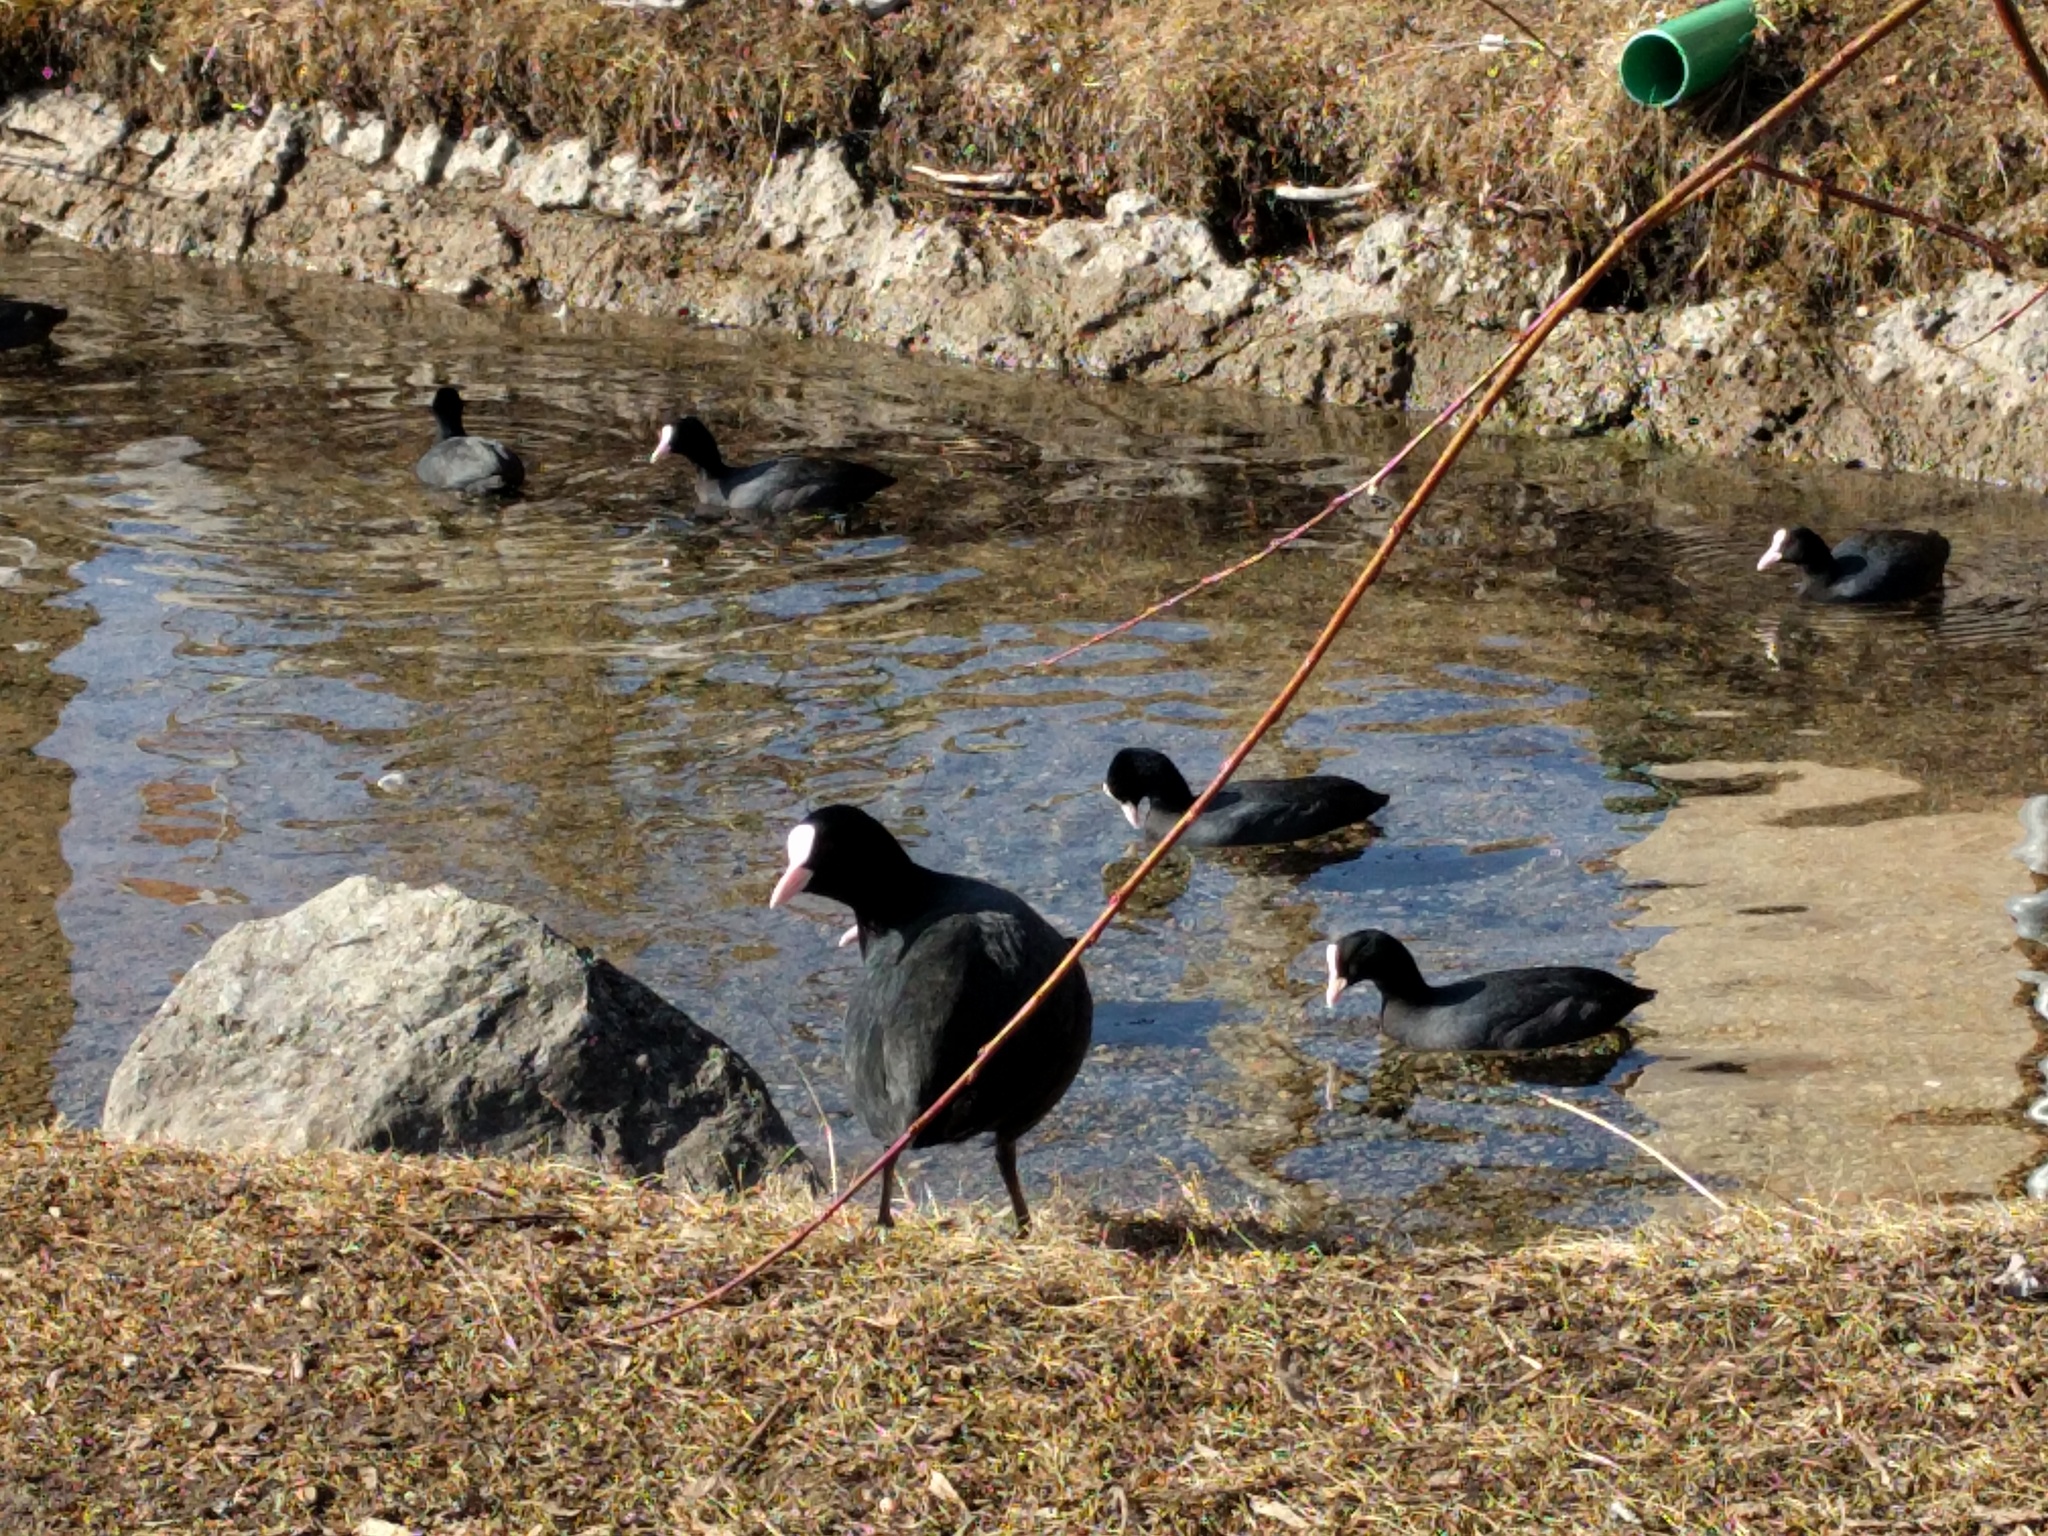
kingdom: Animalia
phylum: Chordata
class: Aves
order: Gruiformes
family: Rallidae
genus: Fulica
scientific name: Fulica atra
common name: Eurasian coot
